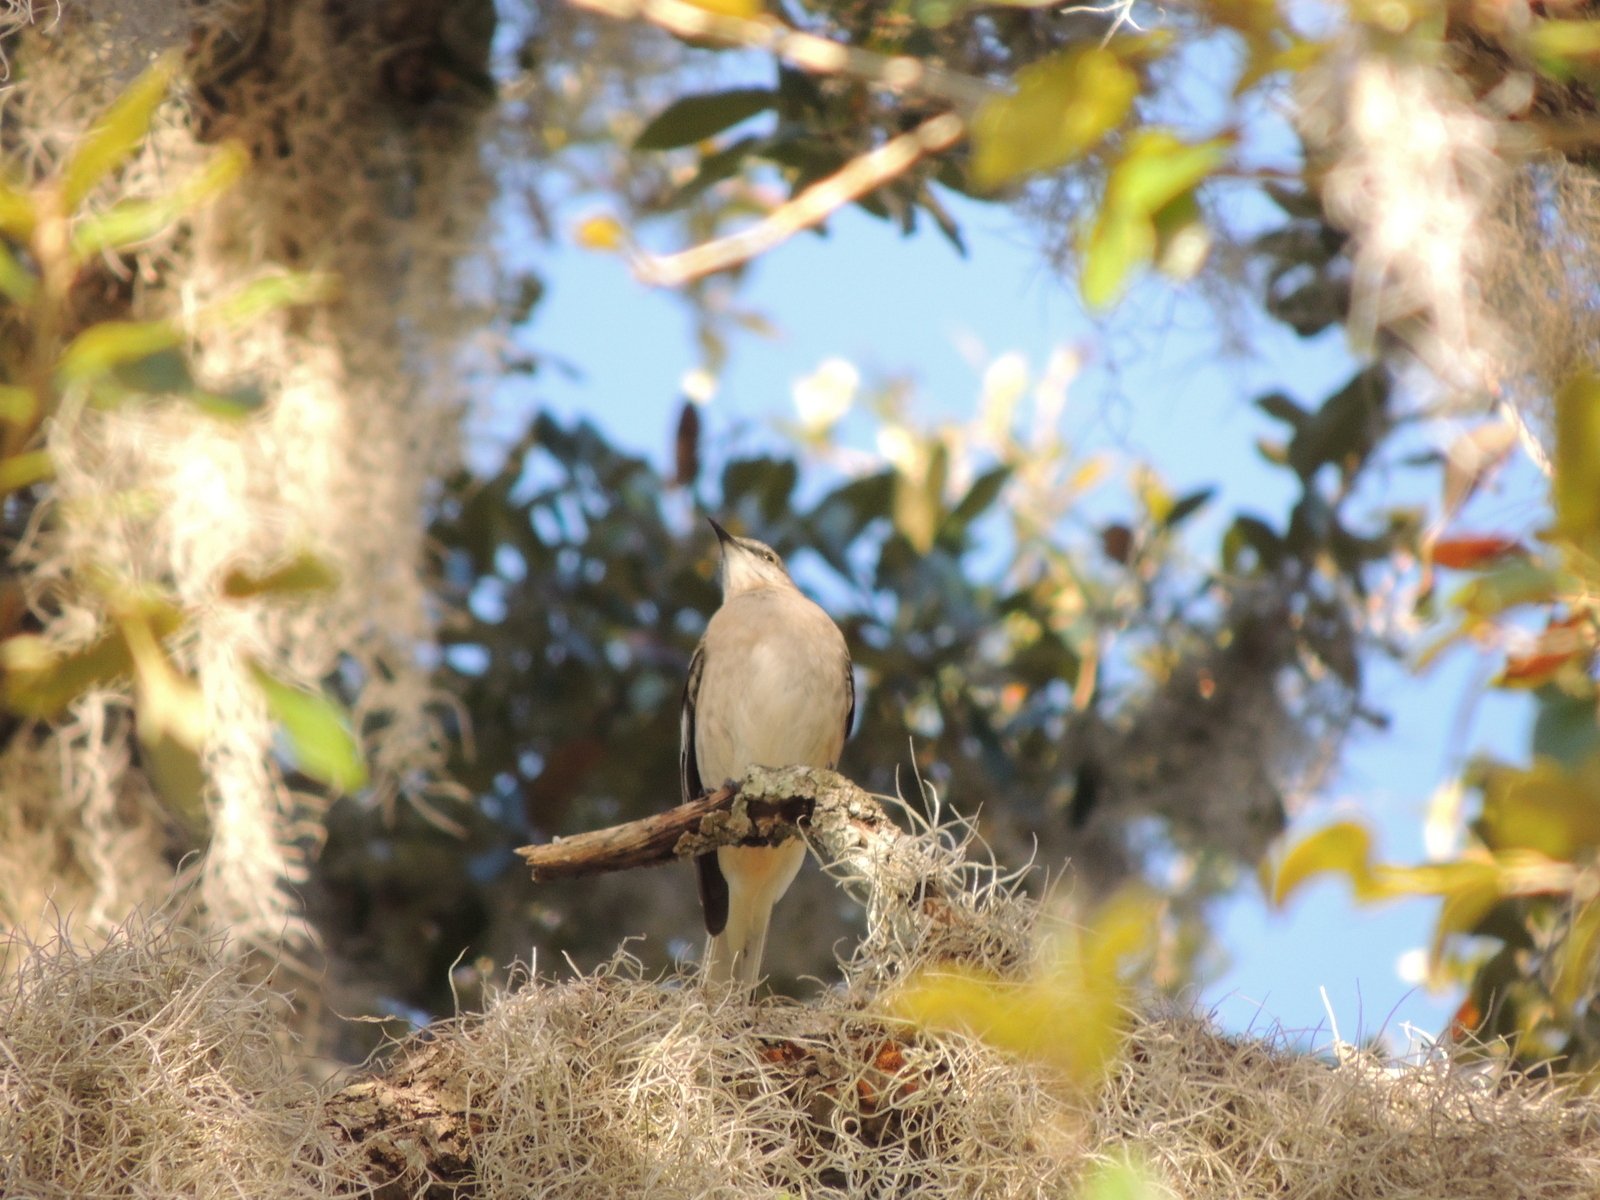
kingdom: Animalia
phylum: Chordata
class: Aves
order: Passeriformes
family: Mimidae
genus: Mimus
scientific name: Mimus polyglottos
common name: Northern mockingbird
